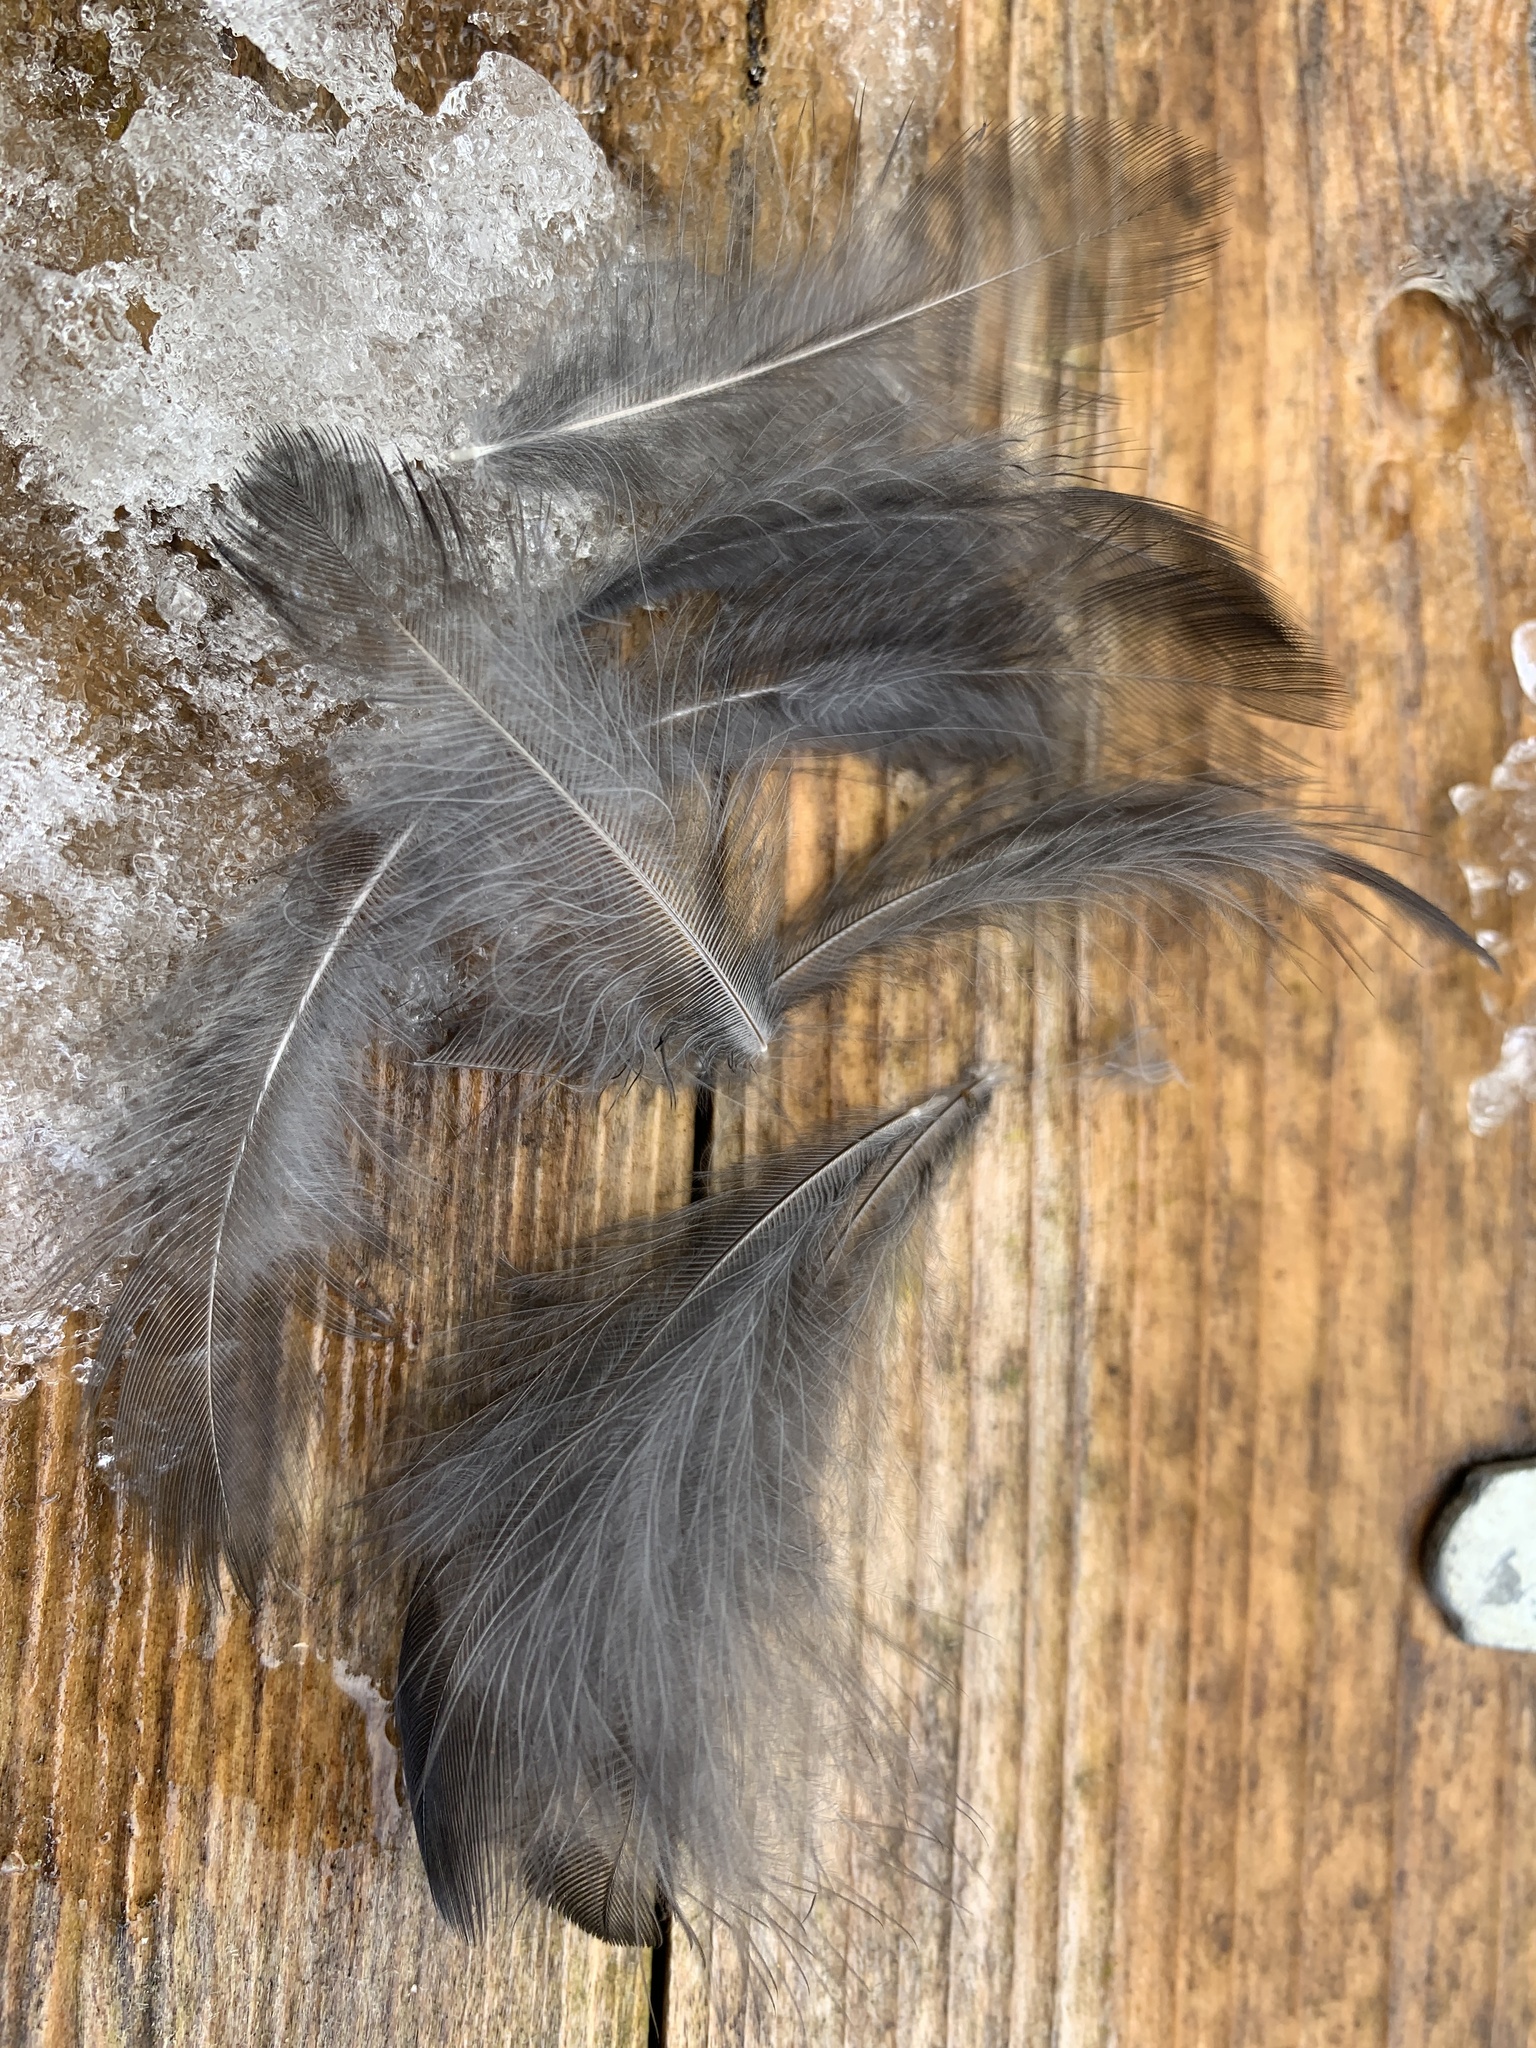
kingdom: Animalia
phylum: Chordata
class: Aves
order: Passeriformes
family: Turdidae
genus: Turdus
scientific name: Turdus merula
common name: Common blackbird
